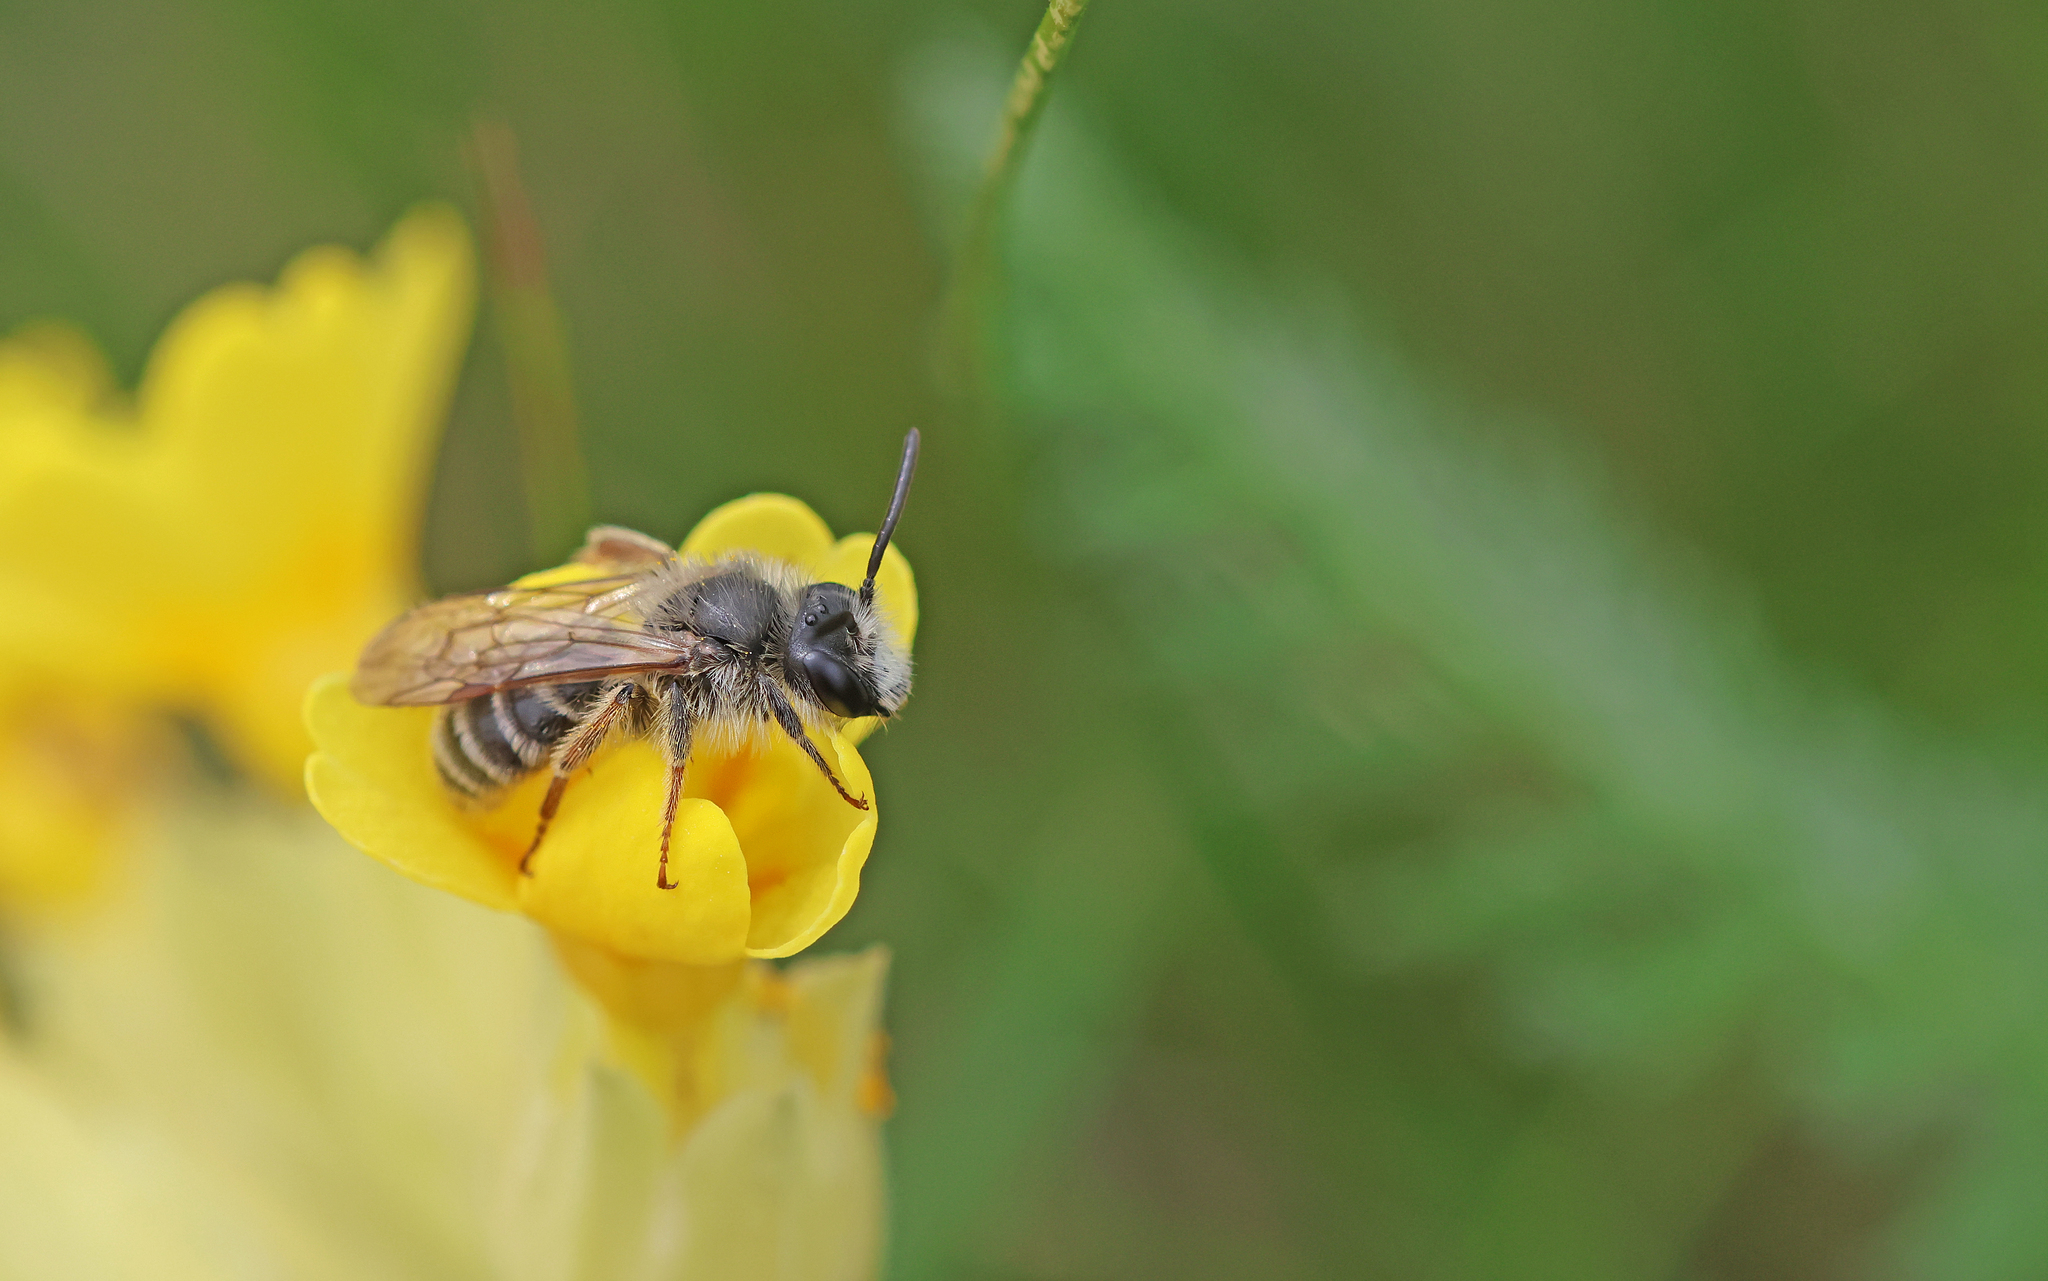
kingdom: Animalia
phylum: Arthropoda
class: Insecta
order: Hymenoptera
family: Andrenidae
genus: Andrena
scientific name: Andrena florivaga
